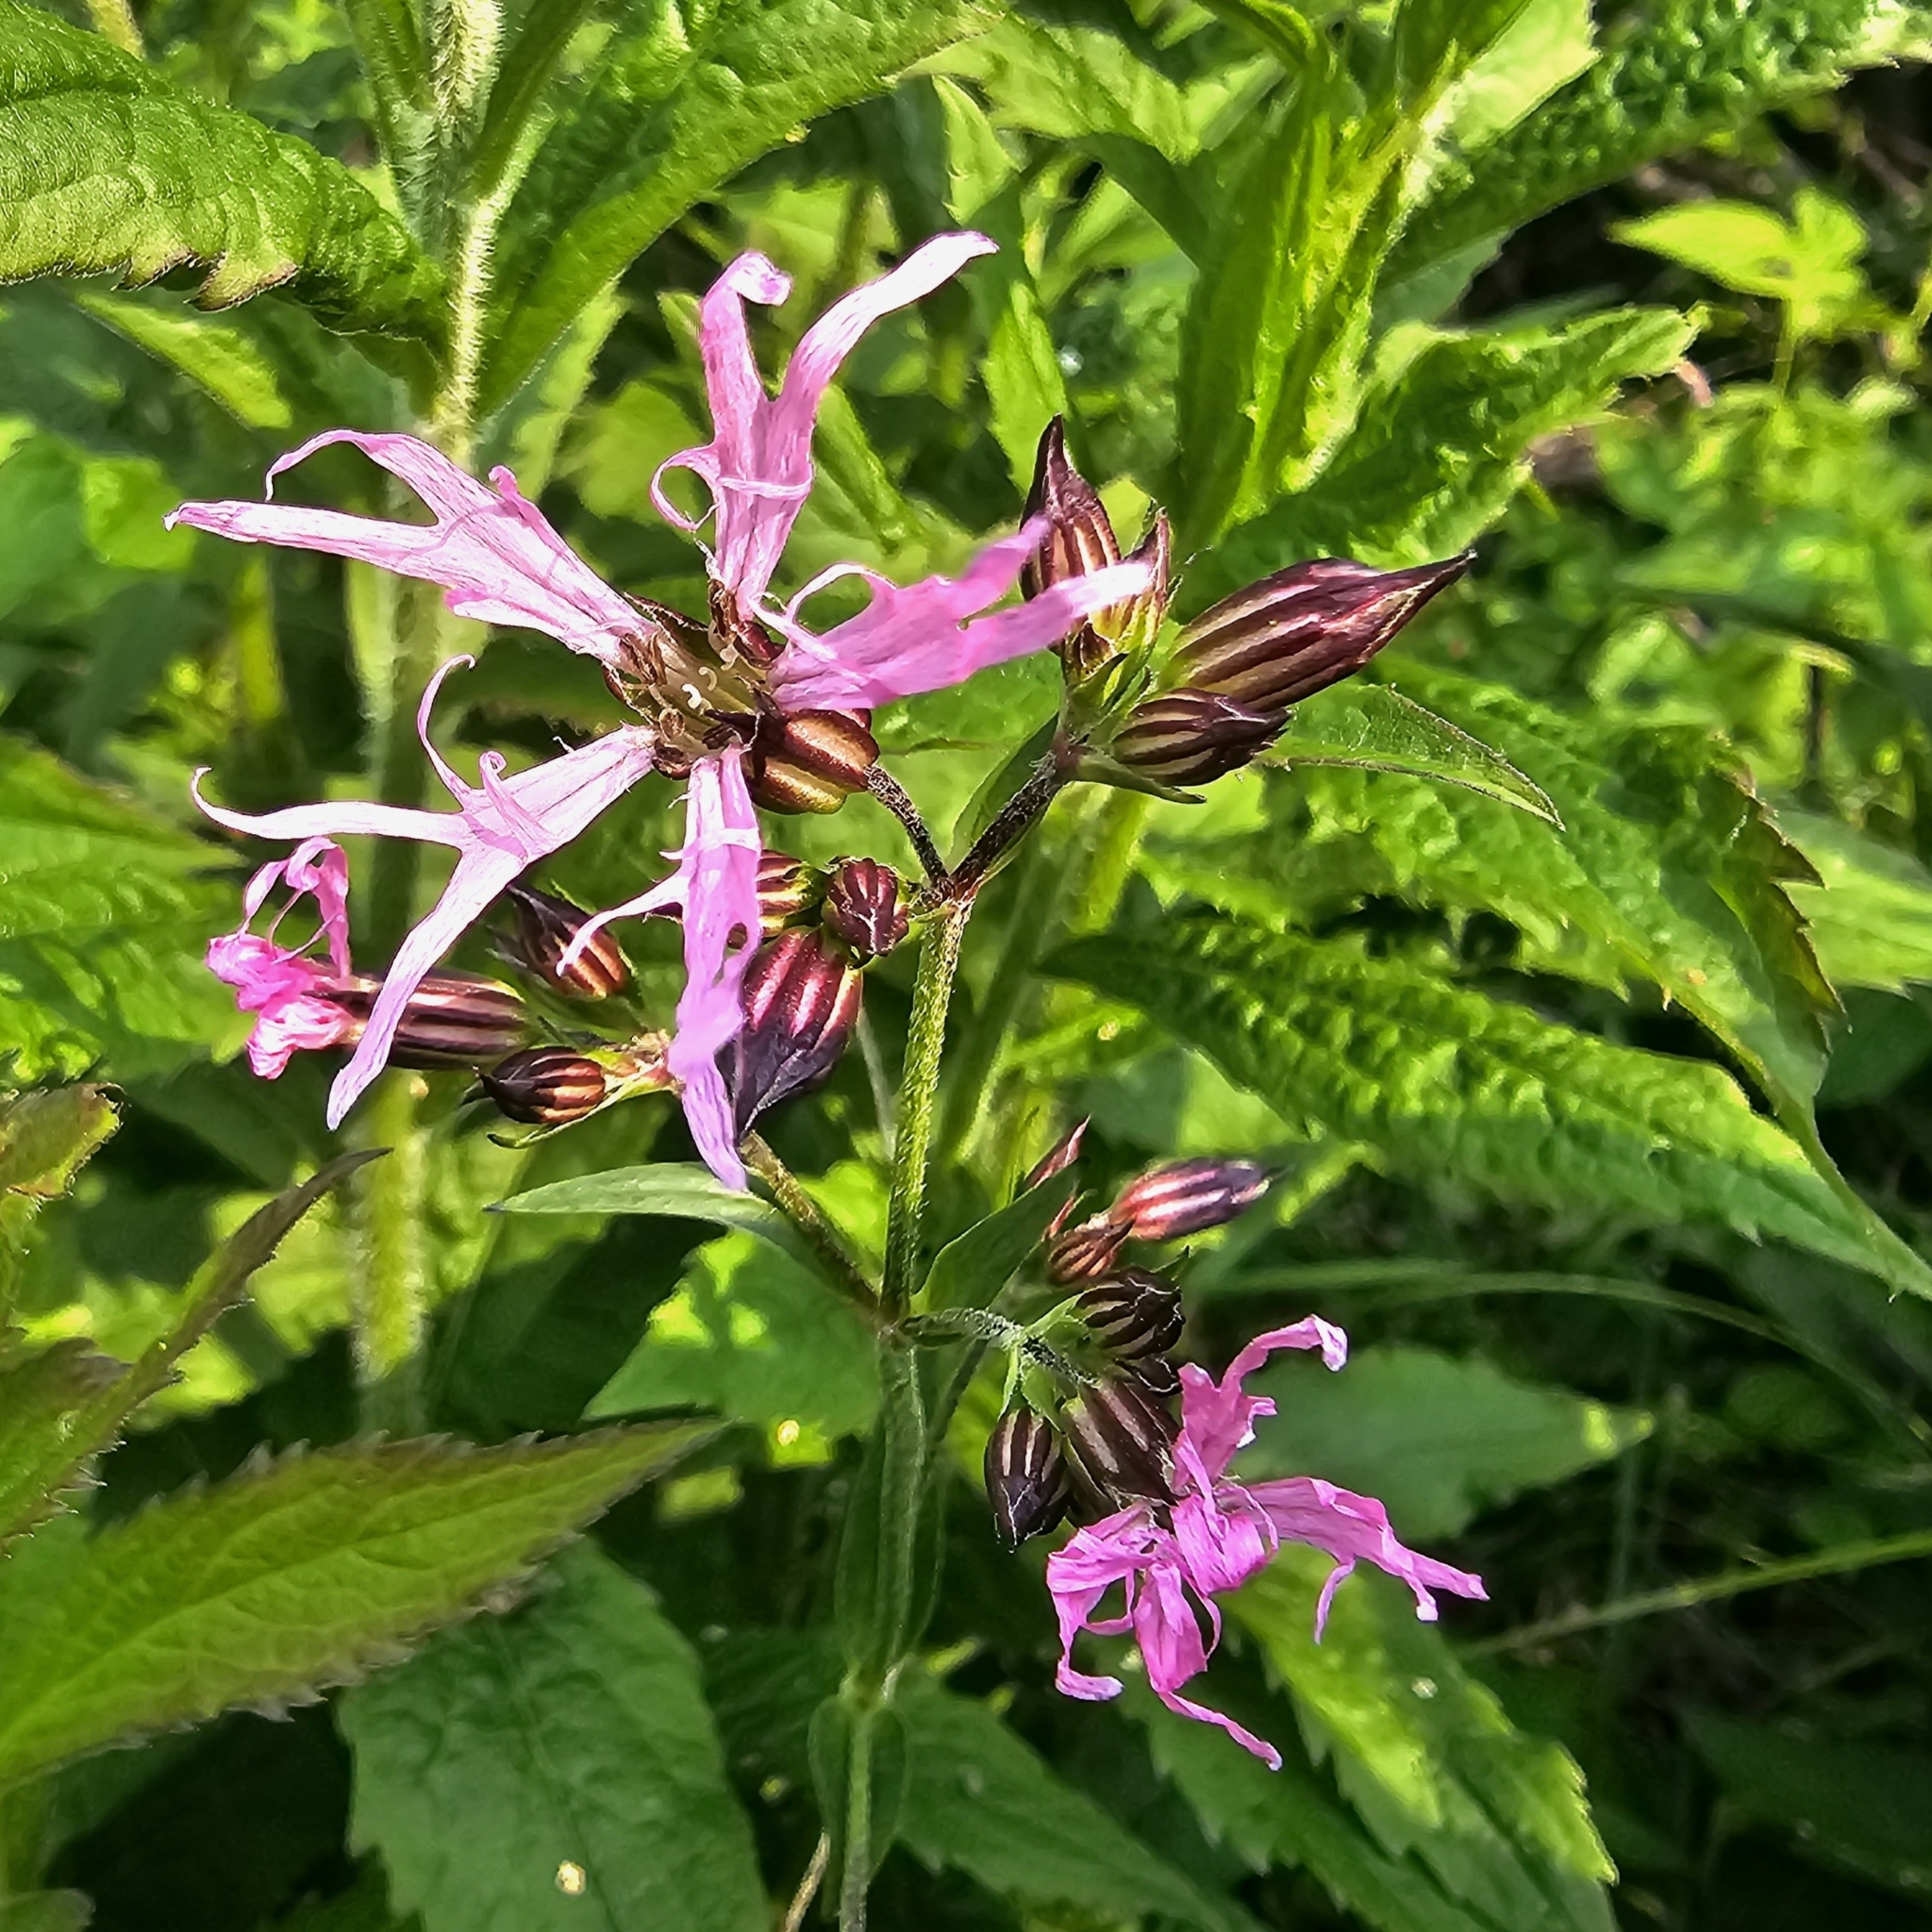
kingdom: Plantae
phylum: Tracheophyta
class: Magnoliopsida
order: Caryophyllales
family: Caryophyllaceae
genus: Silene
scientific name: Silene flos-cuculi
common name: Ragged-robin
